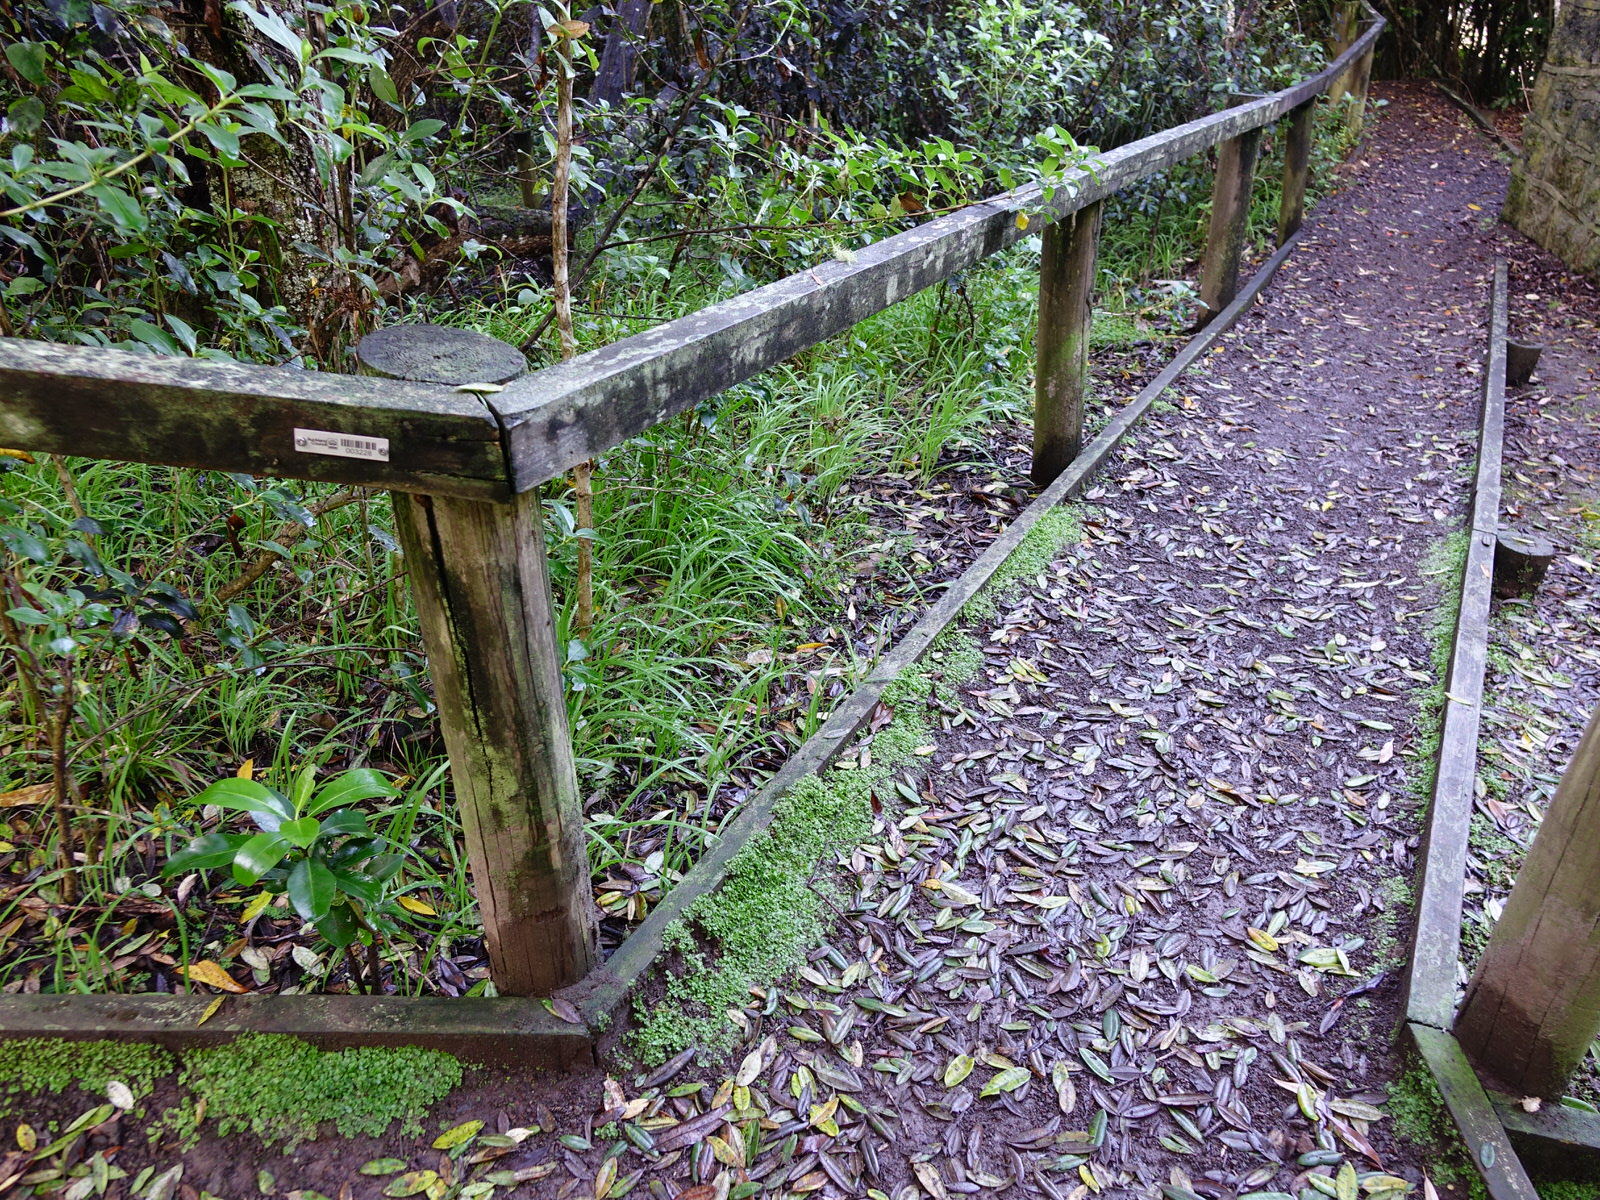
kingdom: Plantae
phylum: Marchantiophyta
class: Marchantiopsida
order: Lunulariales
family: Lunulariaceae
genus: Lunularia
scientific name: Lunularia cruciata
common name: Crescent-cup liverwort
